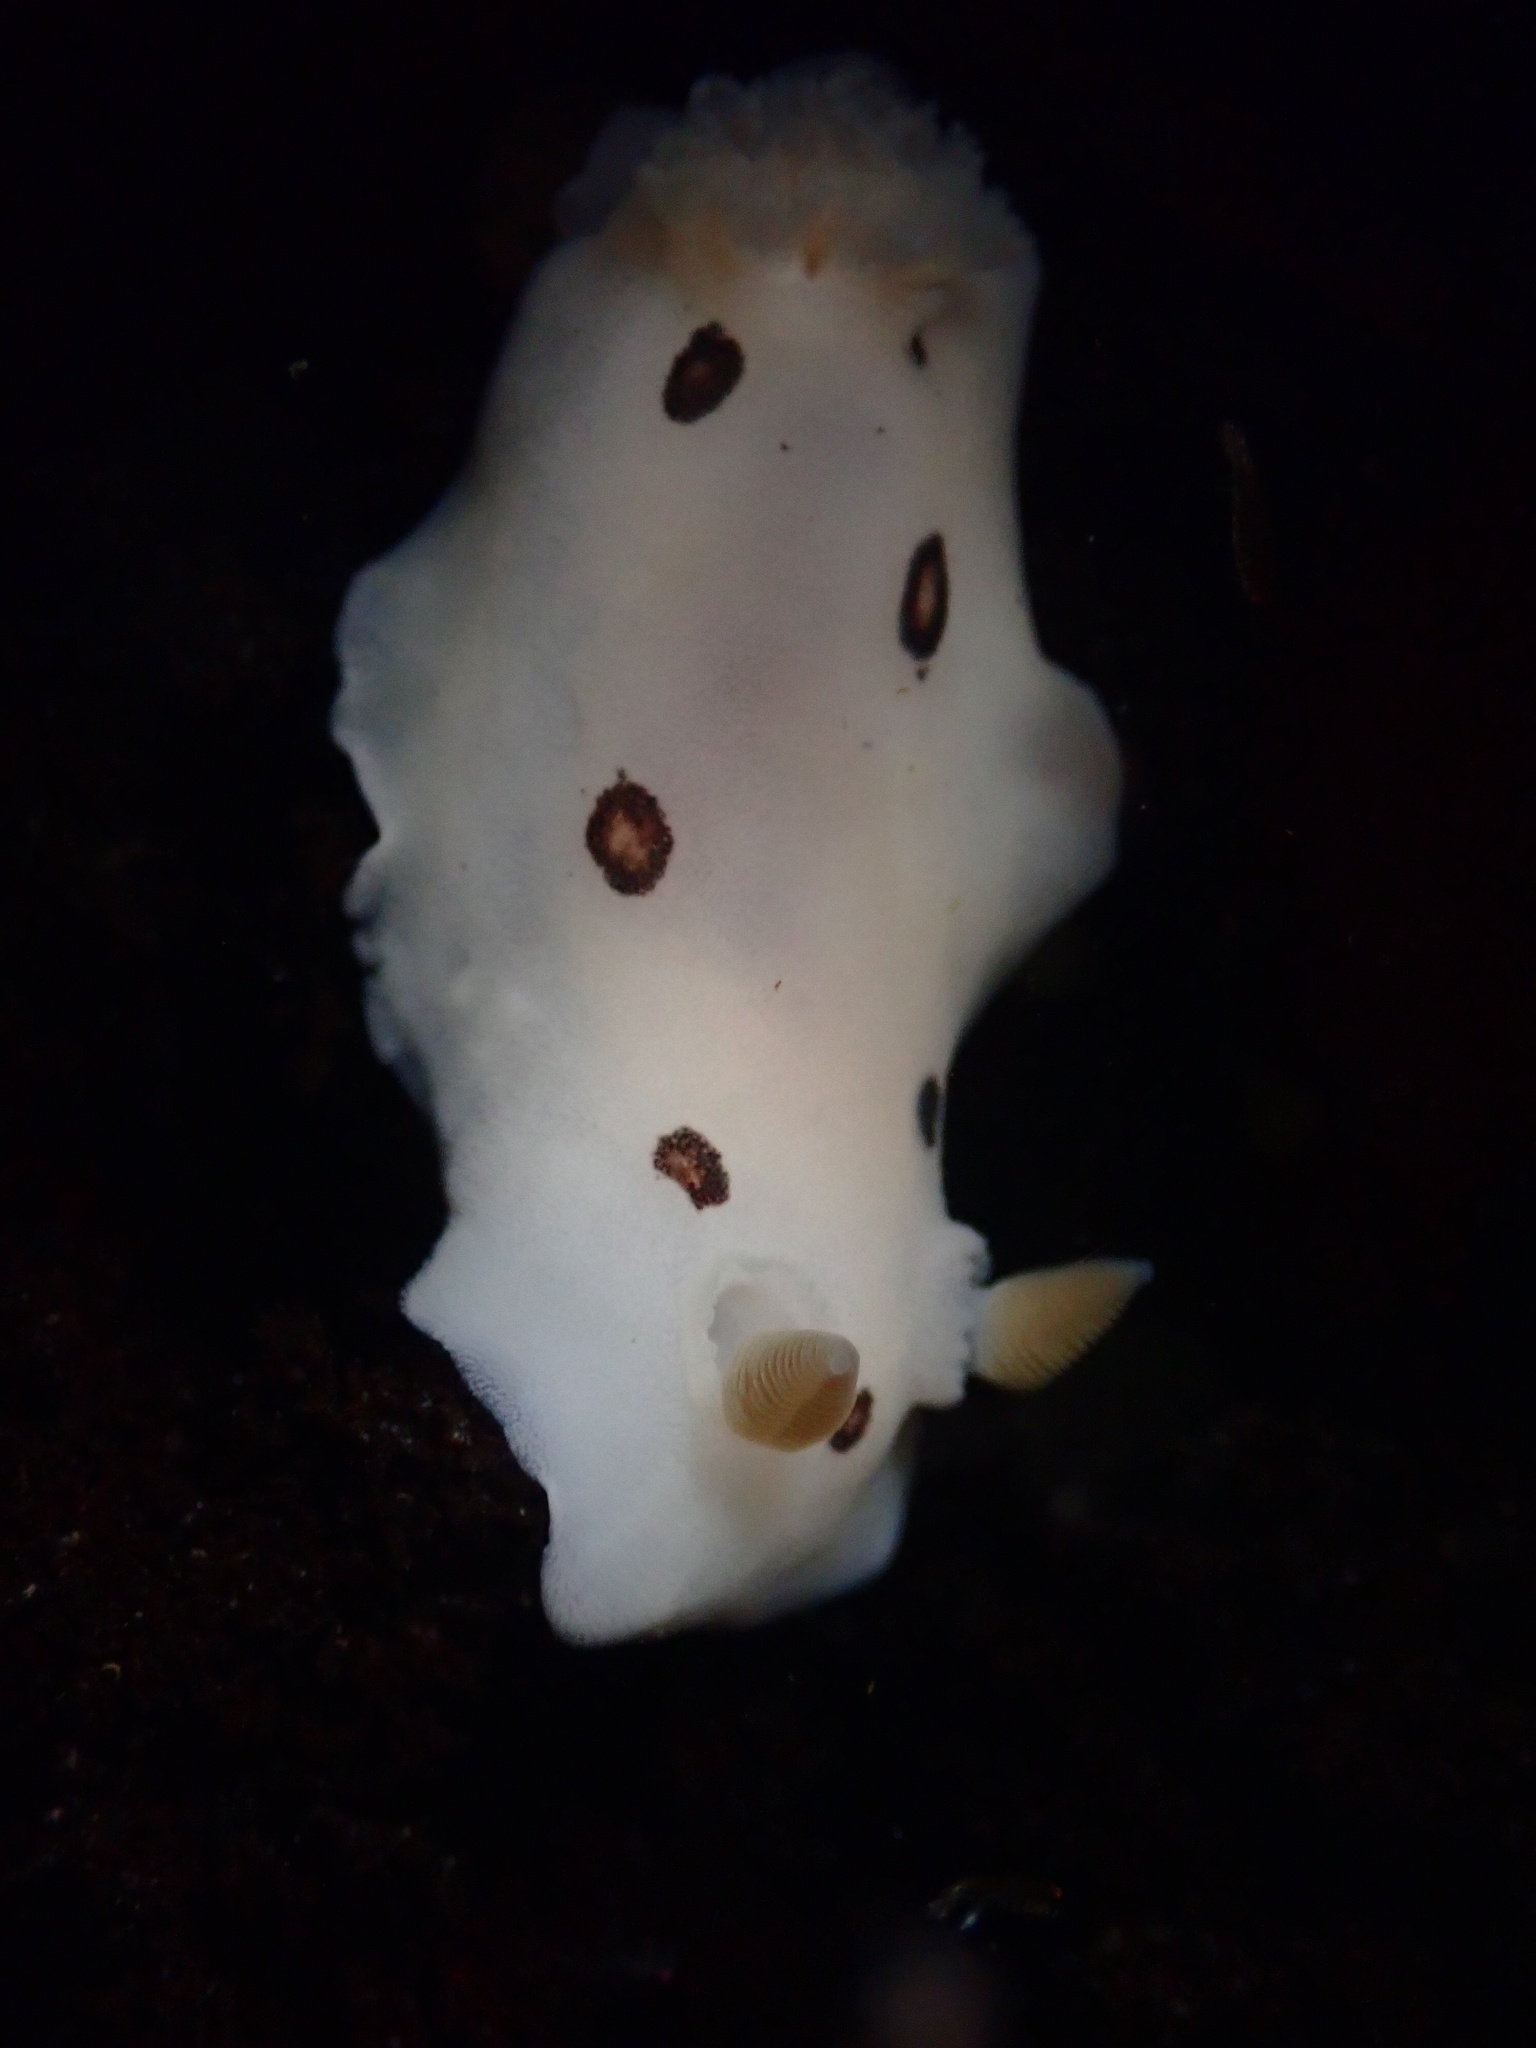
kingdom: Animalia
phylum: Mollusca
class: Gastropoda
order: Nudibranchia
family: Discodorididae
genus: Diaulula
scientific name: Diaulula sandiegensis
